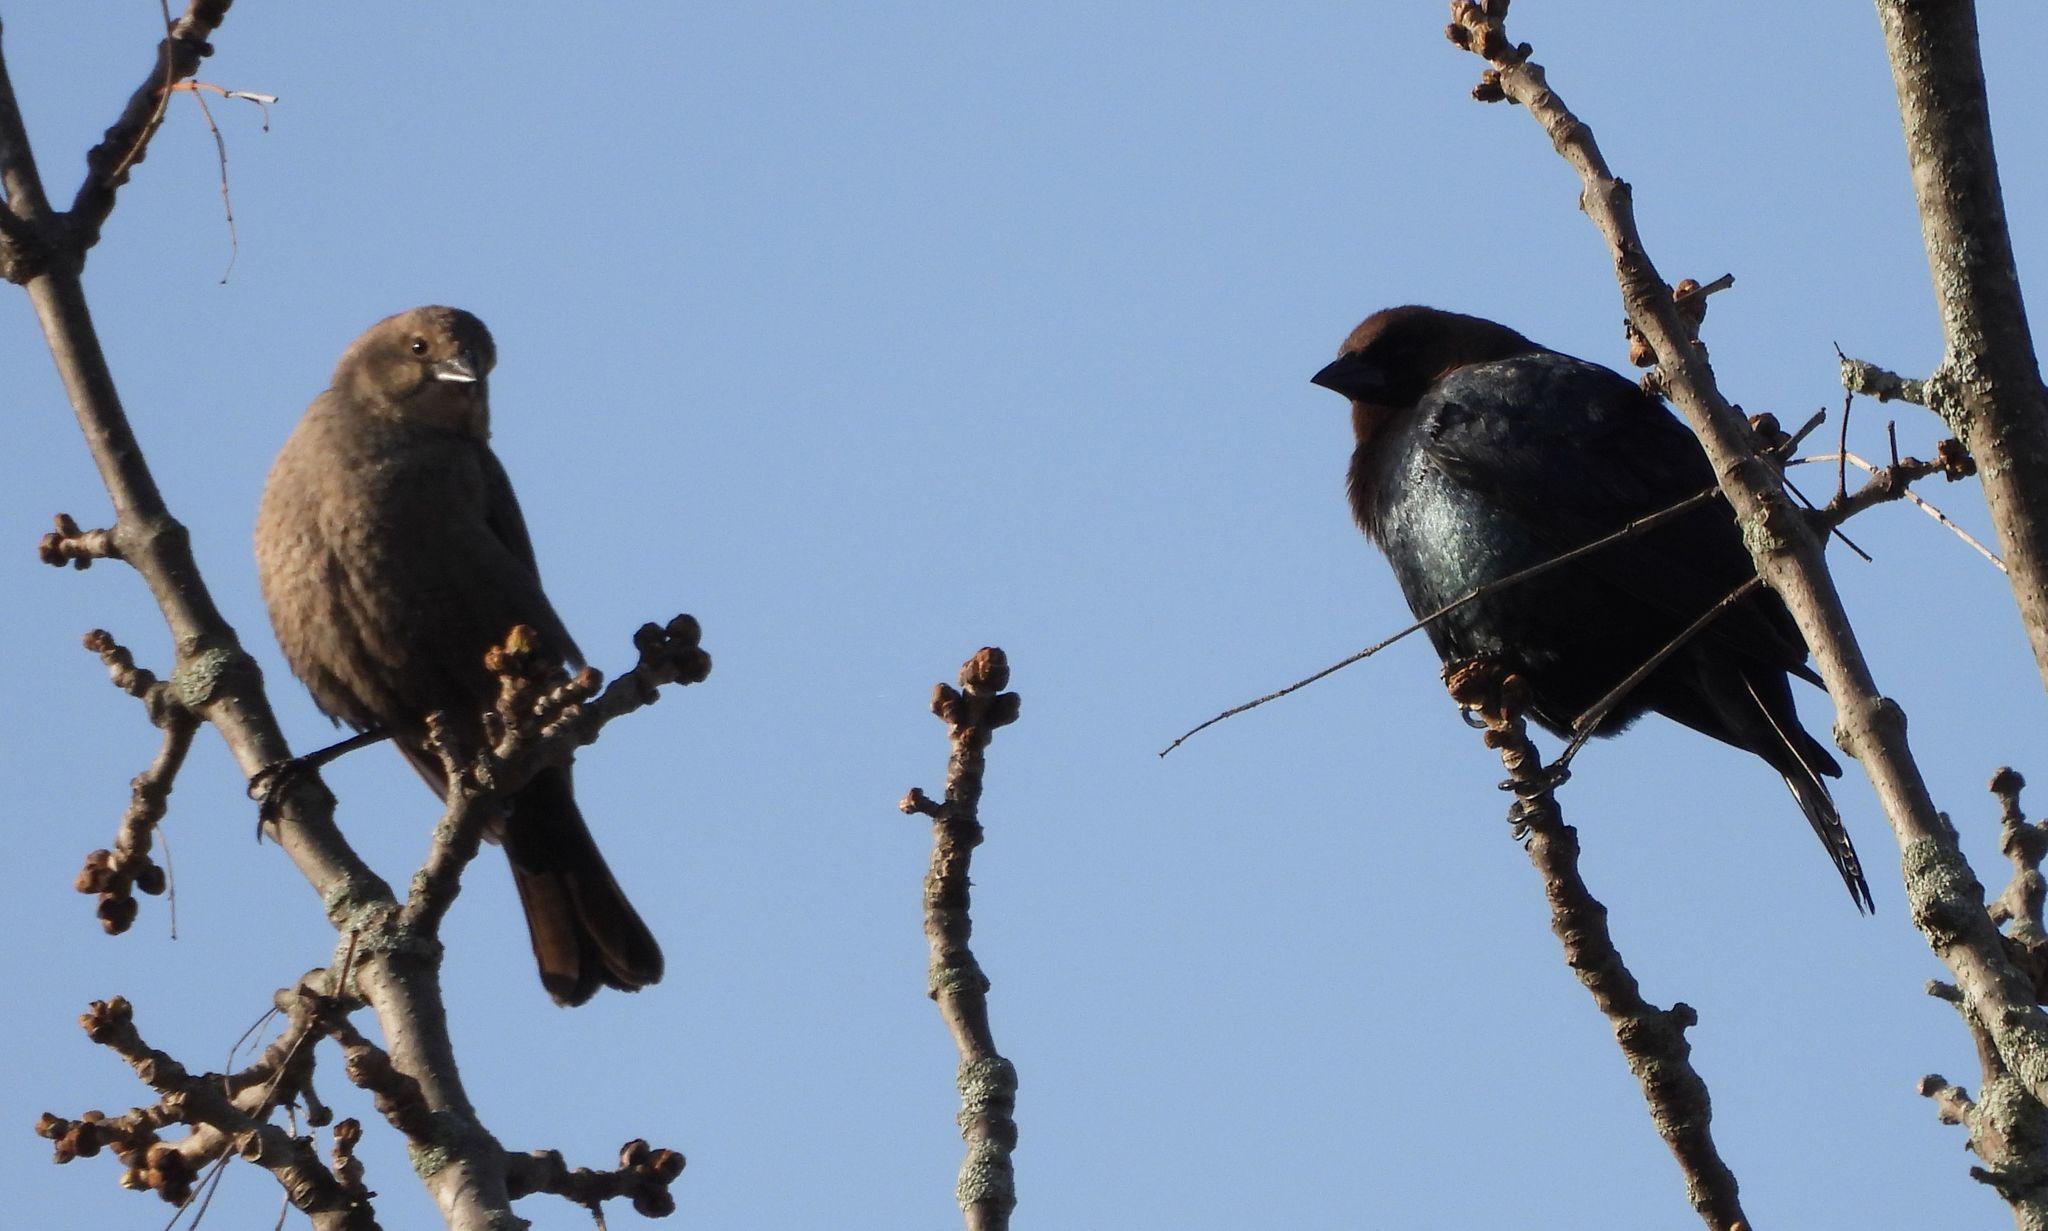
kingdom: Animalia
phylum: Chordata
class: Aves
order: Passeriformes
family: Icteridae
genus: Molothrus
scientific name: Molothrus ater
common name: Brown-headed cowbird
